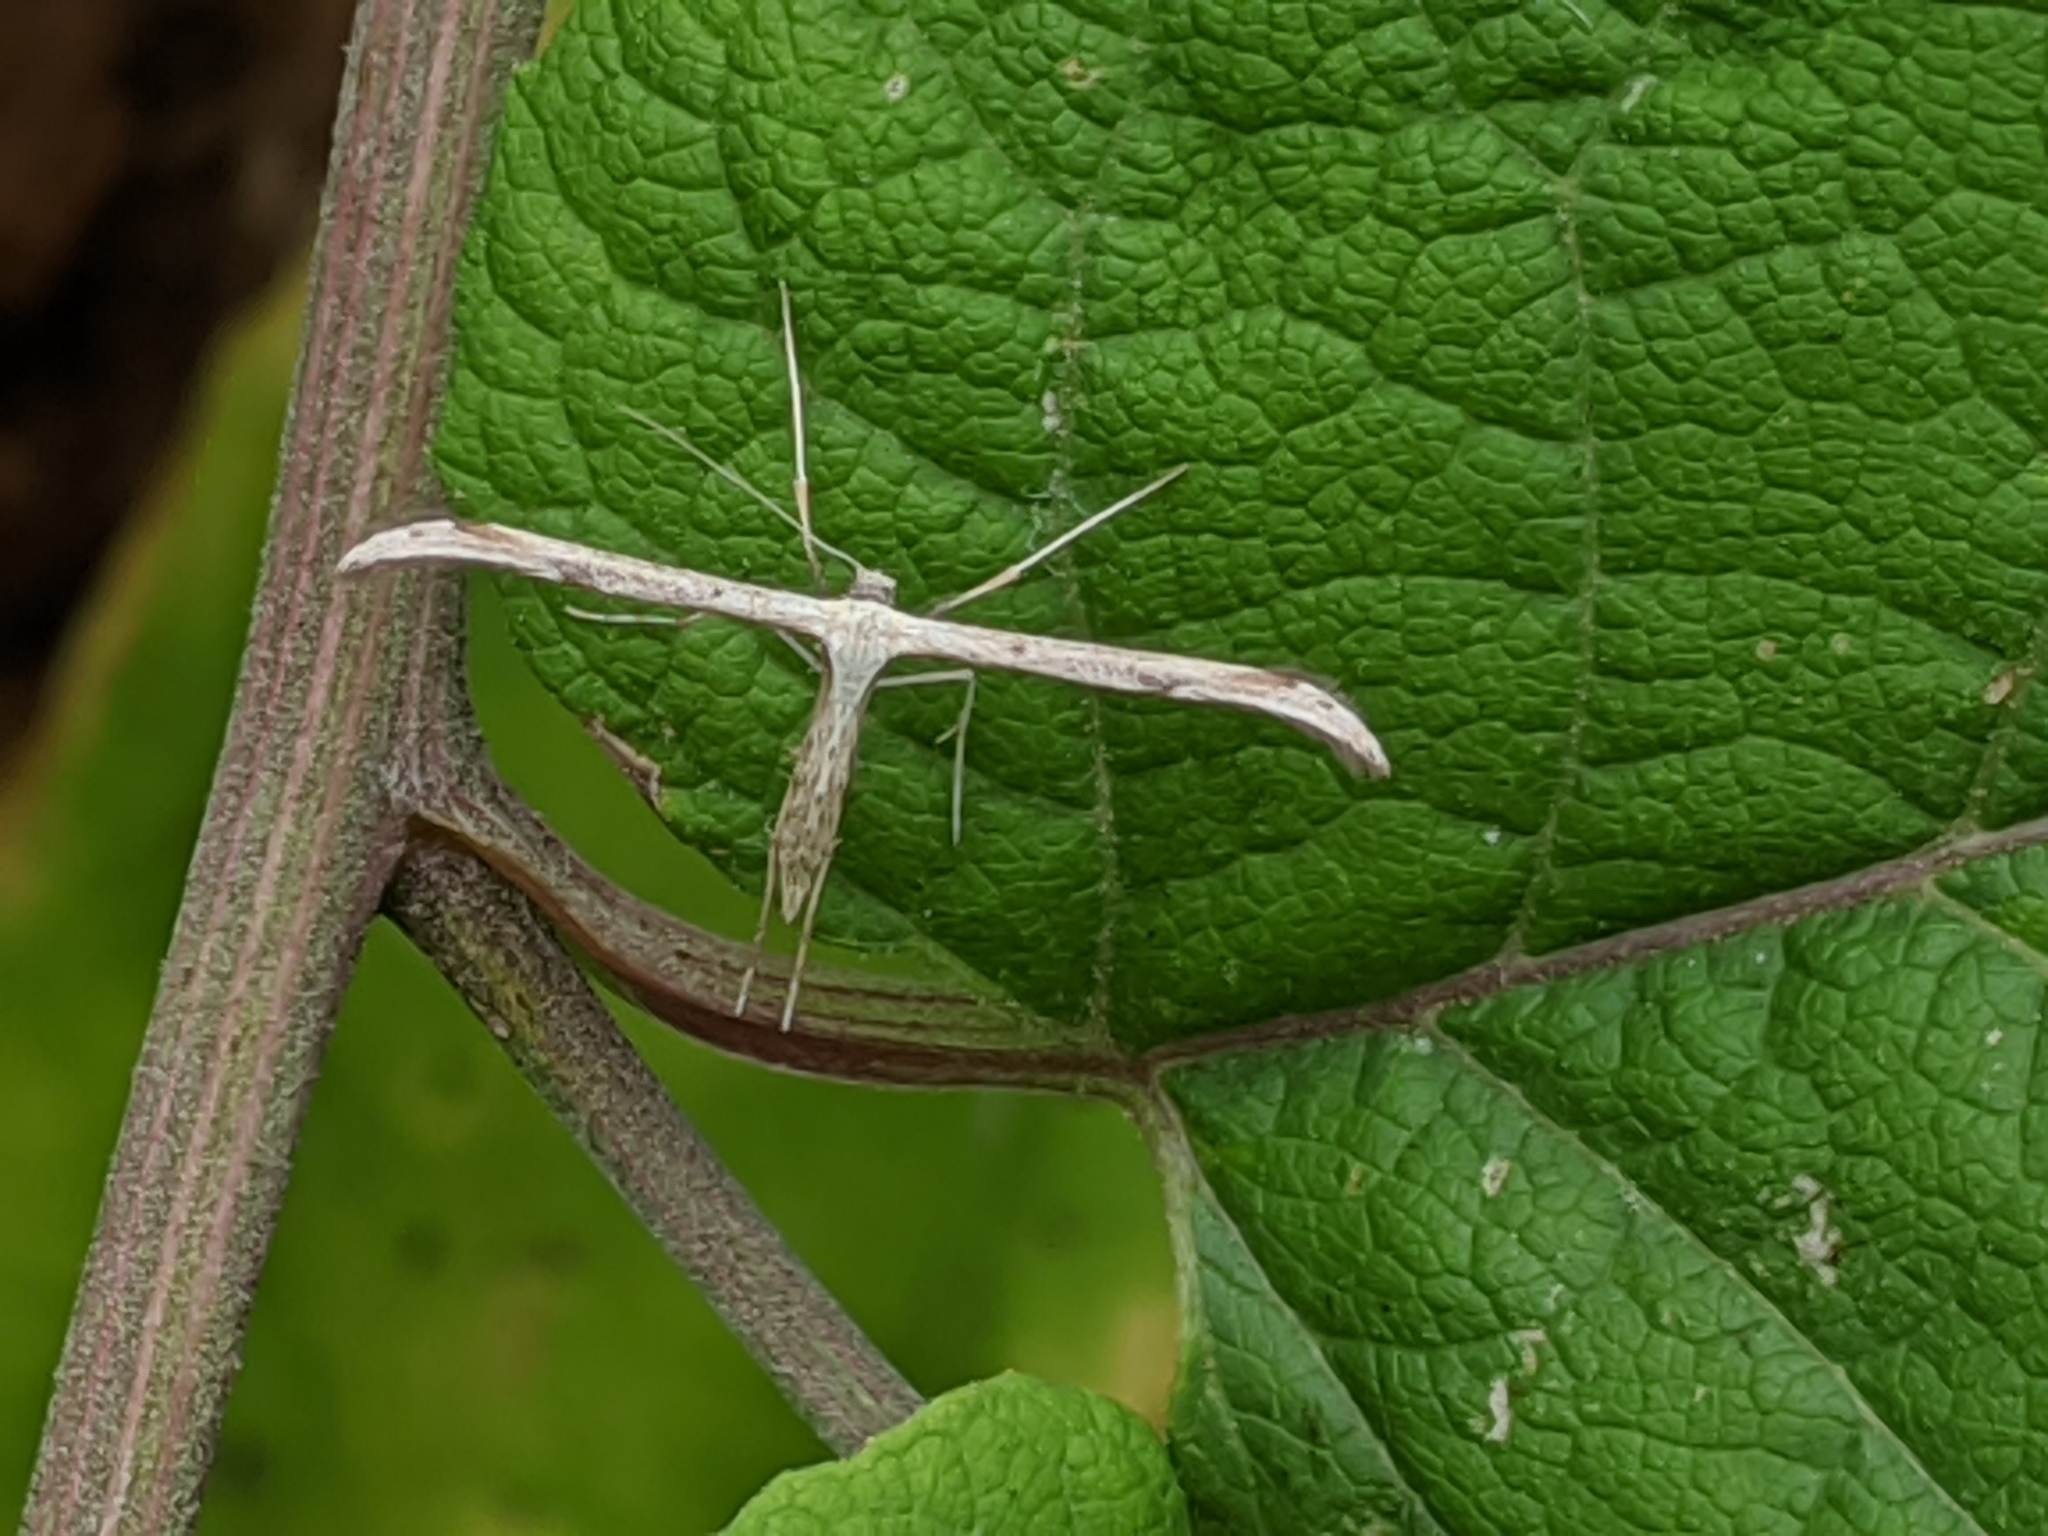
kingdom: Animalia
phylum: Arthropoda
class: Insecta
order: Lepidoptera
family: Pterophoridae
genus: Emmelina
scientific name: Emmelina monodactyla
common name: Common plume
